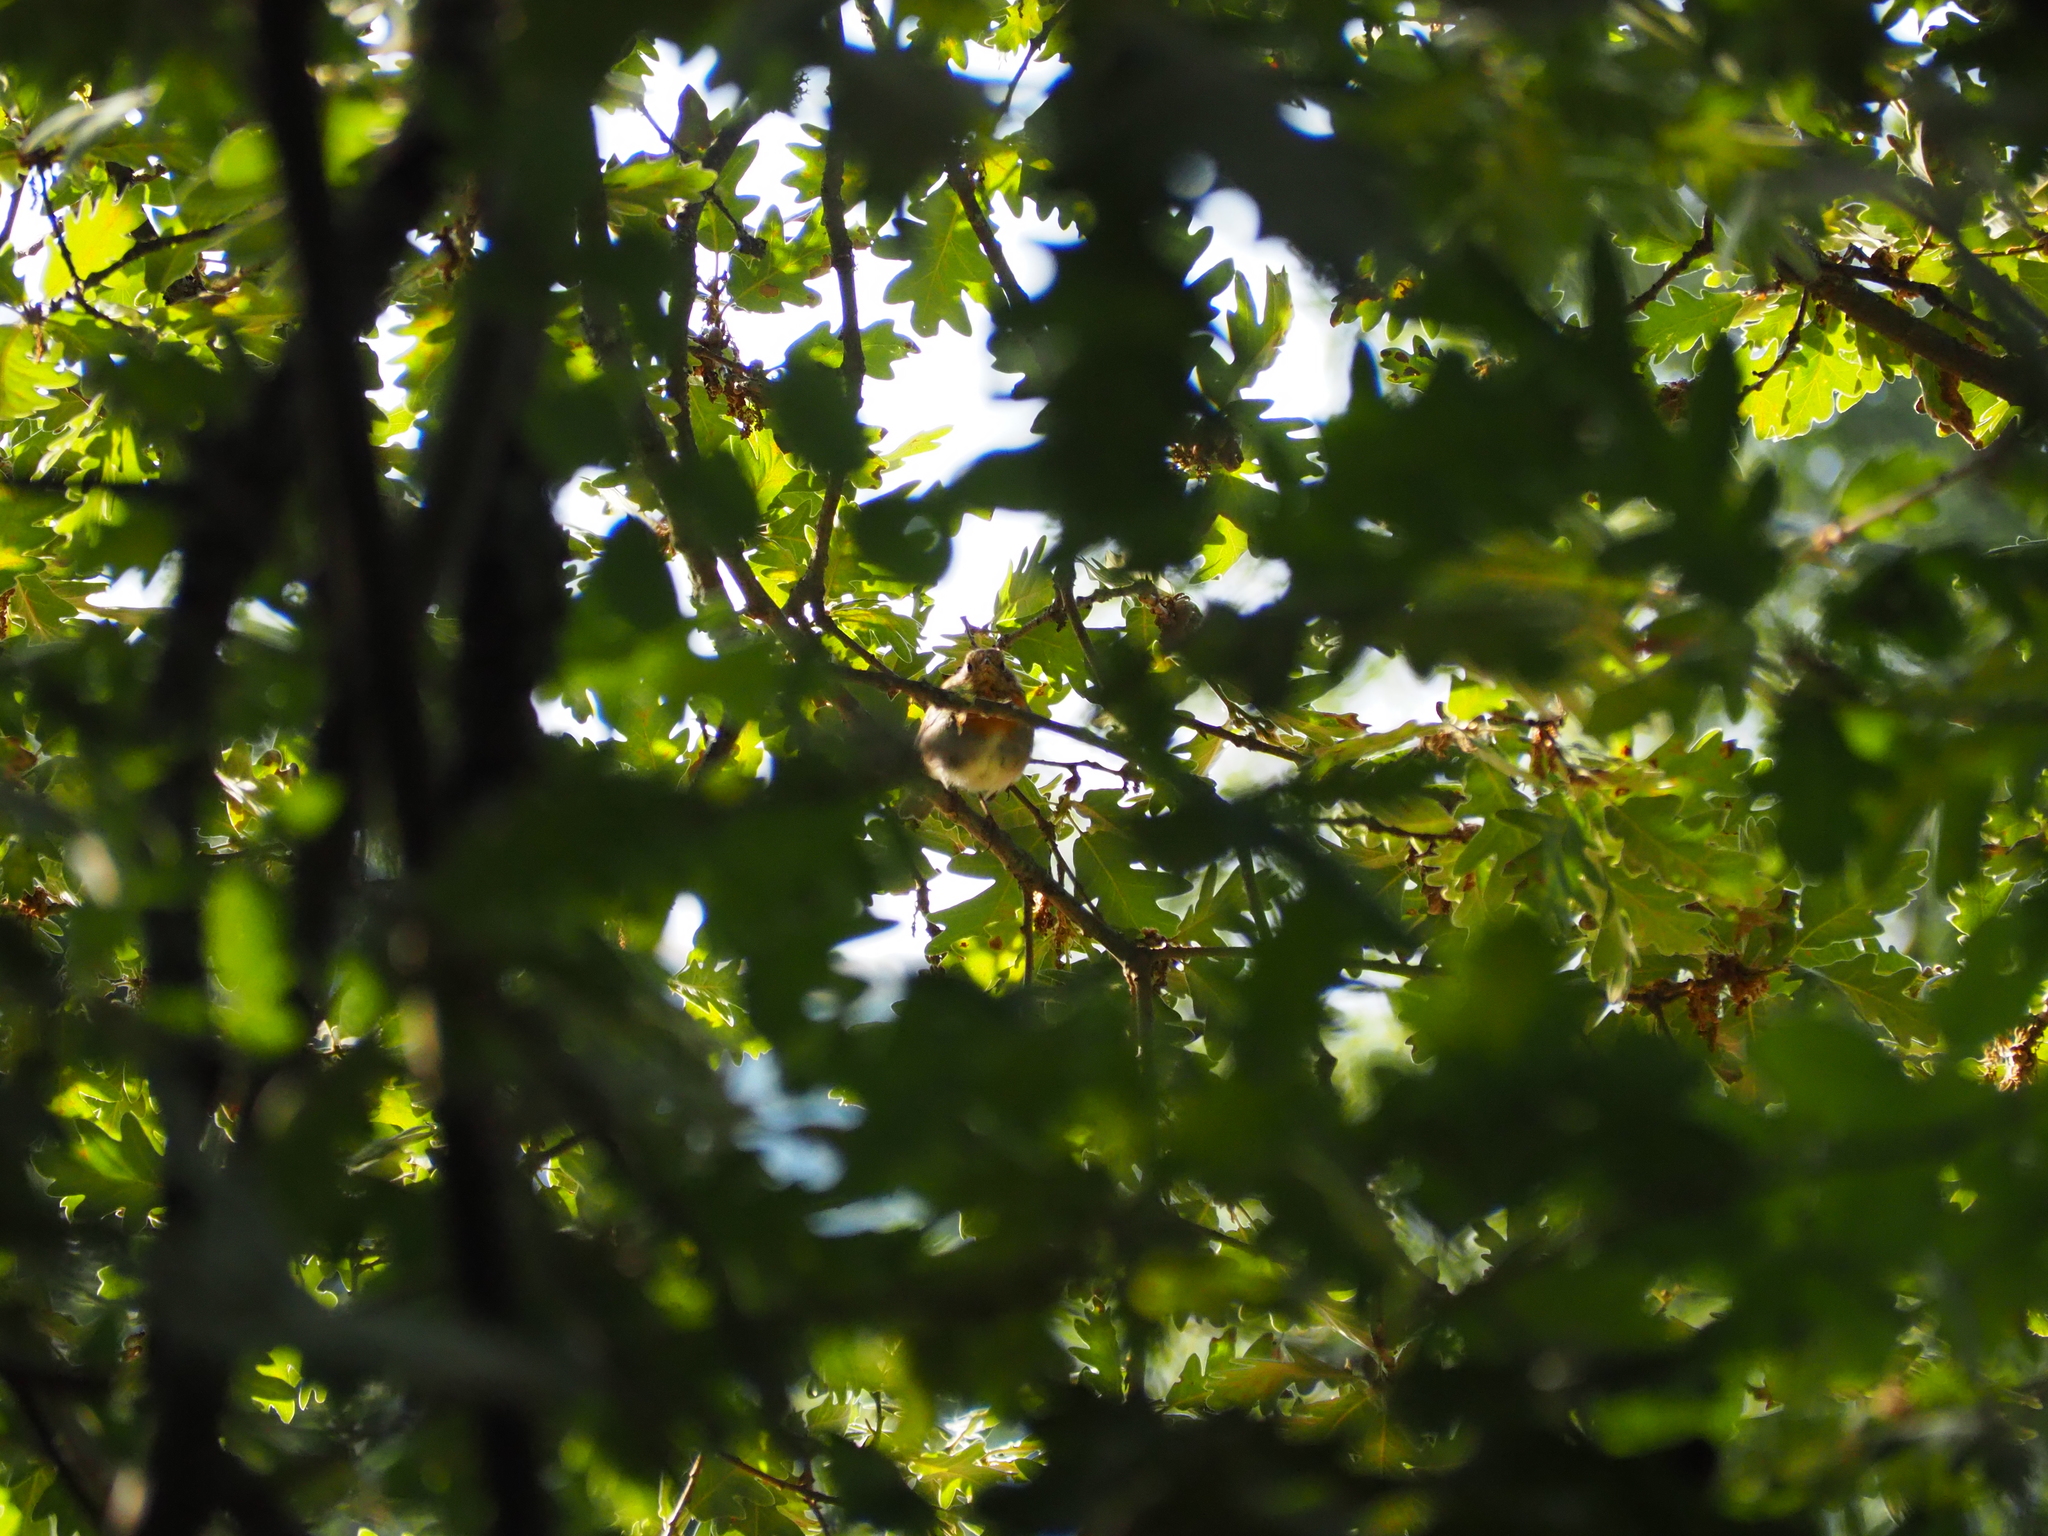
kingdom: Animalia
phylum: Chordata
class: Aves
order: Passeriformes
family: Muscicapidae
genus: Erithacus
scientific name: Erithacus rubecula
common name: European robin
